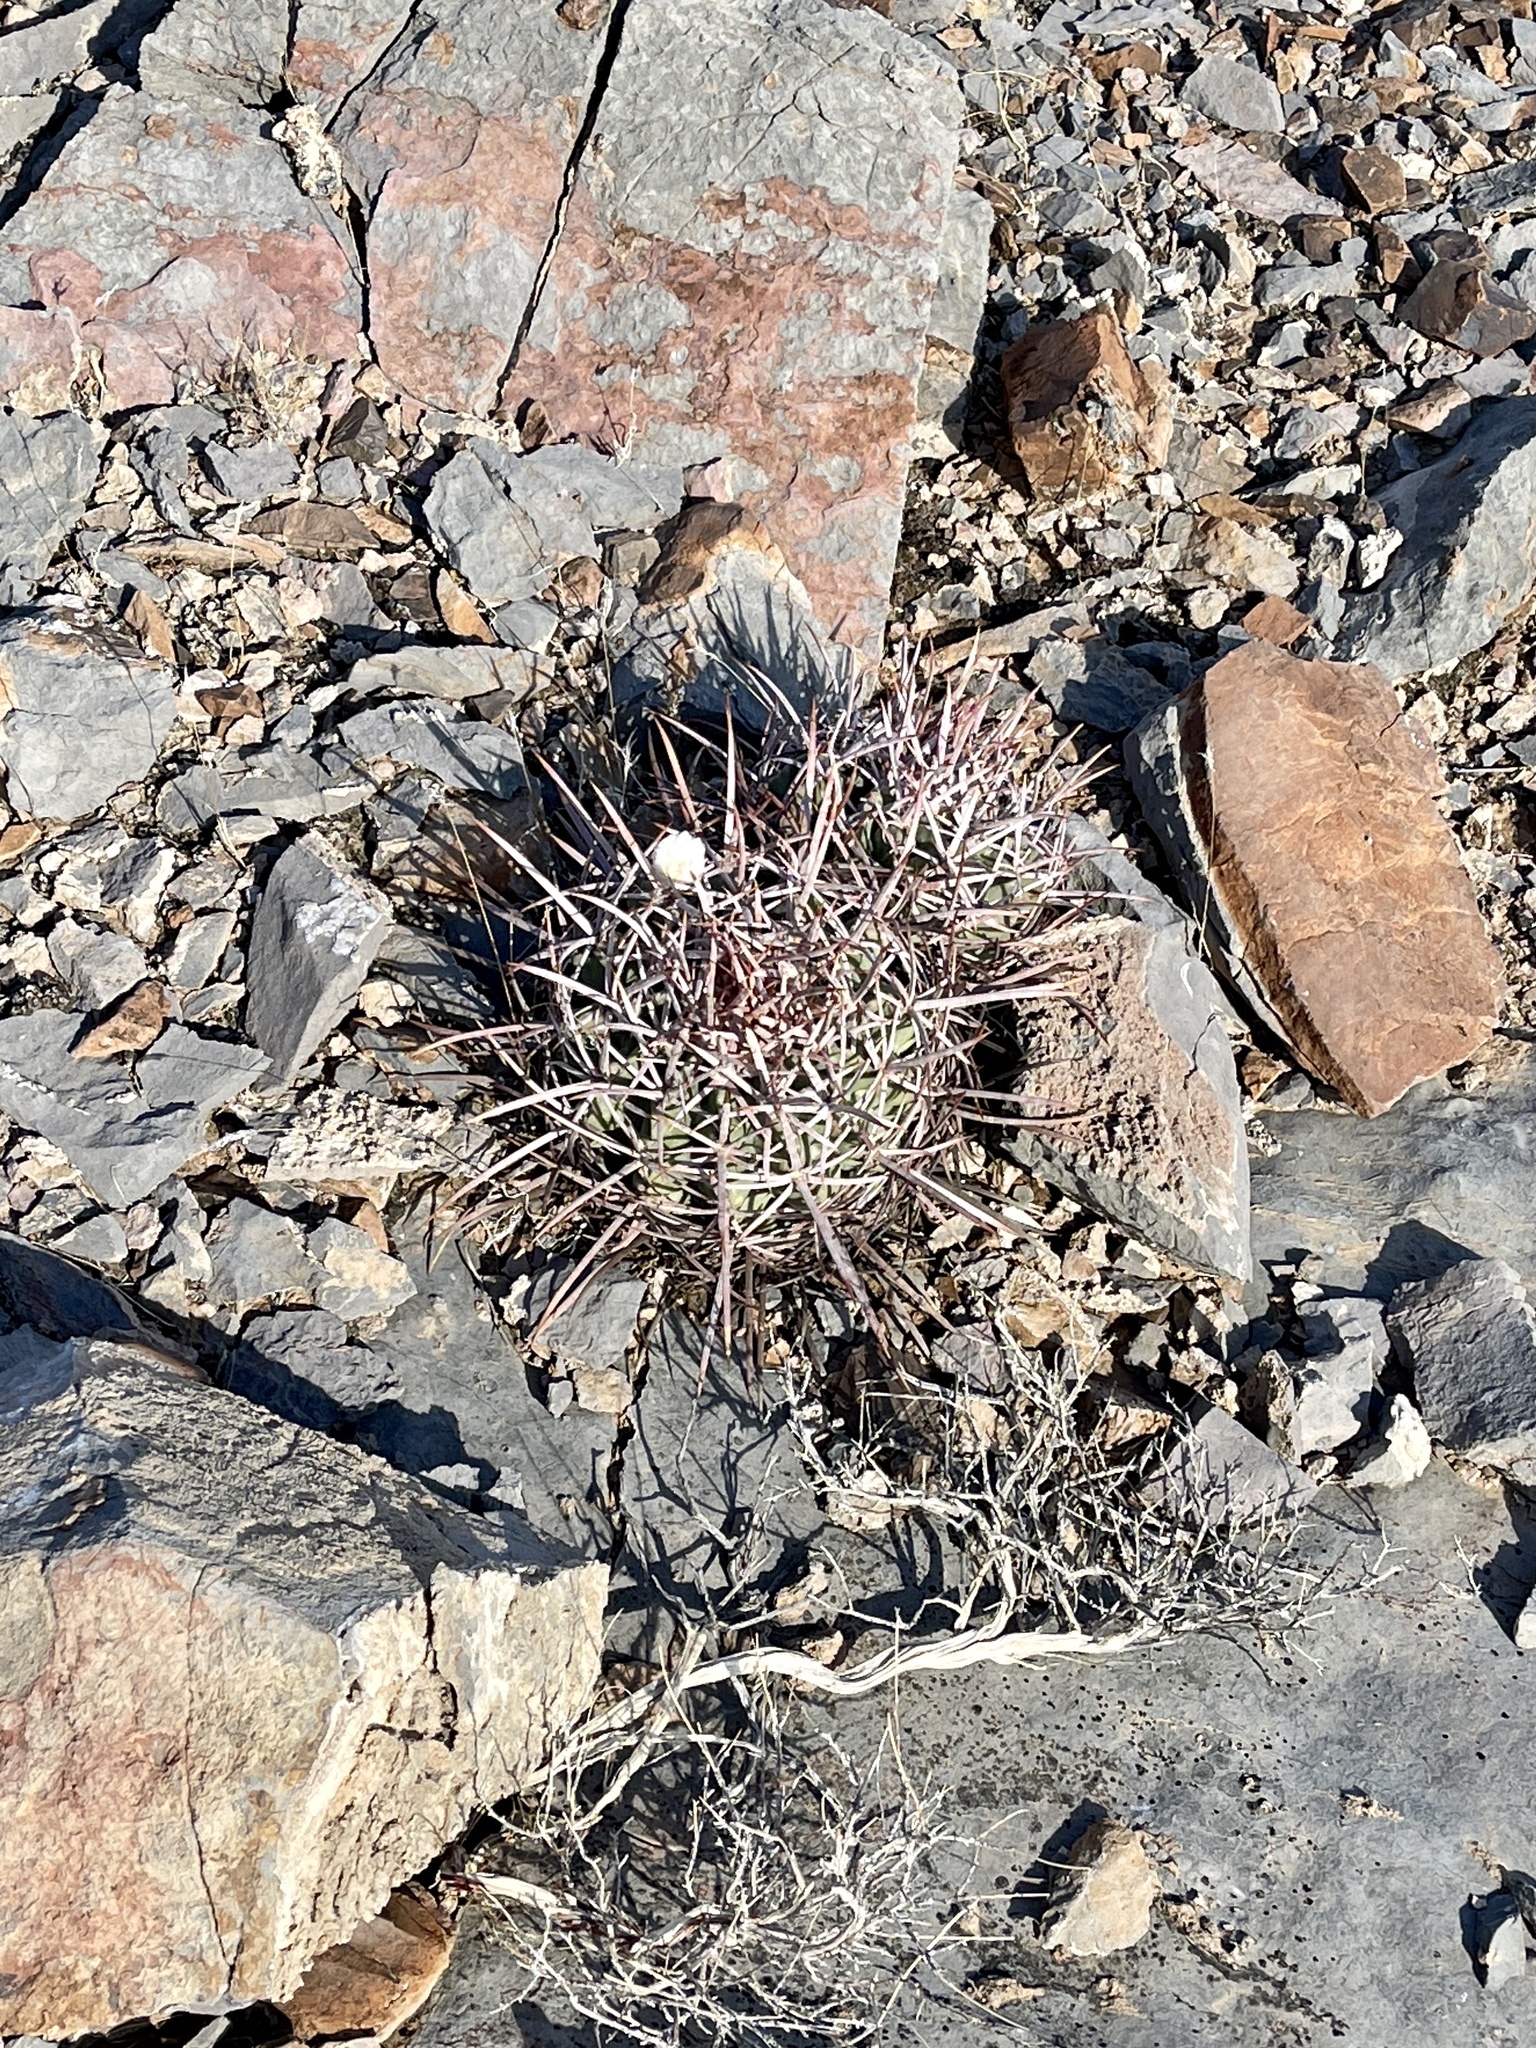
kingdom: Plantae
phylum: Tracheophyta
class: Magnoliopsida
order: Caryophyllales
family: Cactaceae
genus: Echinocactus
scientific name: Echinocactus polycephalus
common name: Cottontop cactus
